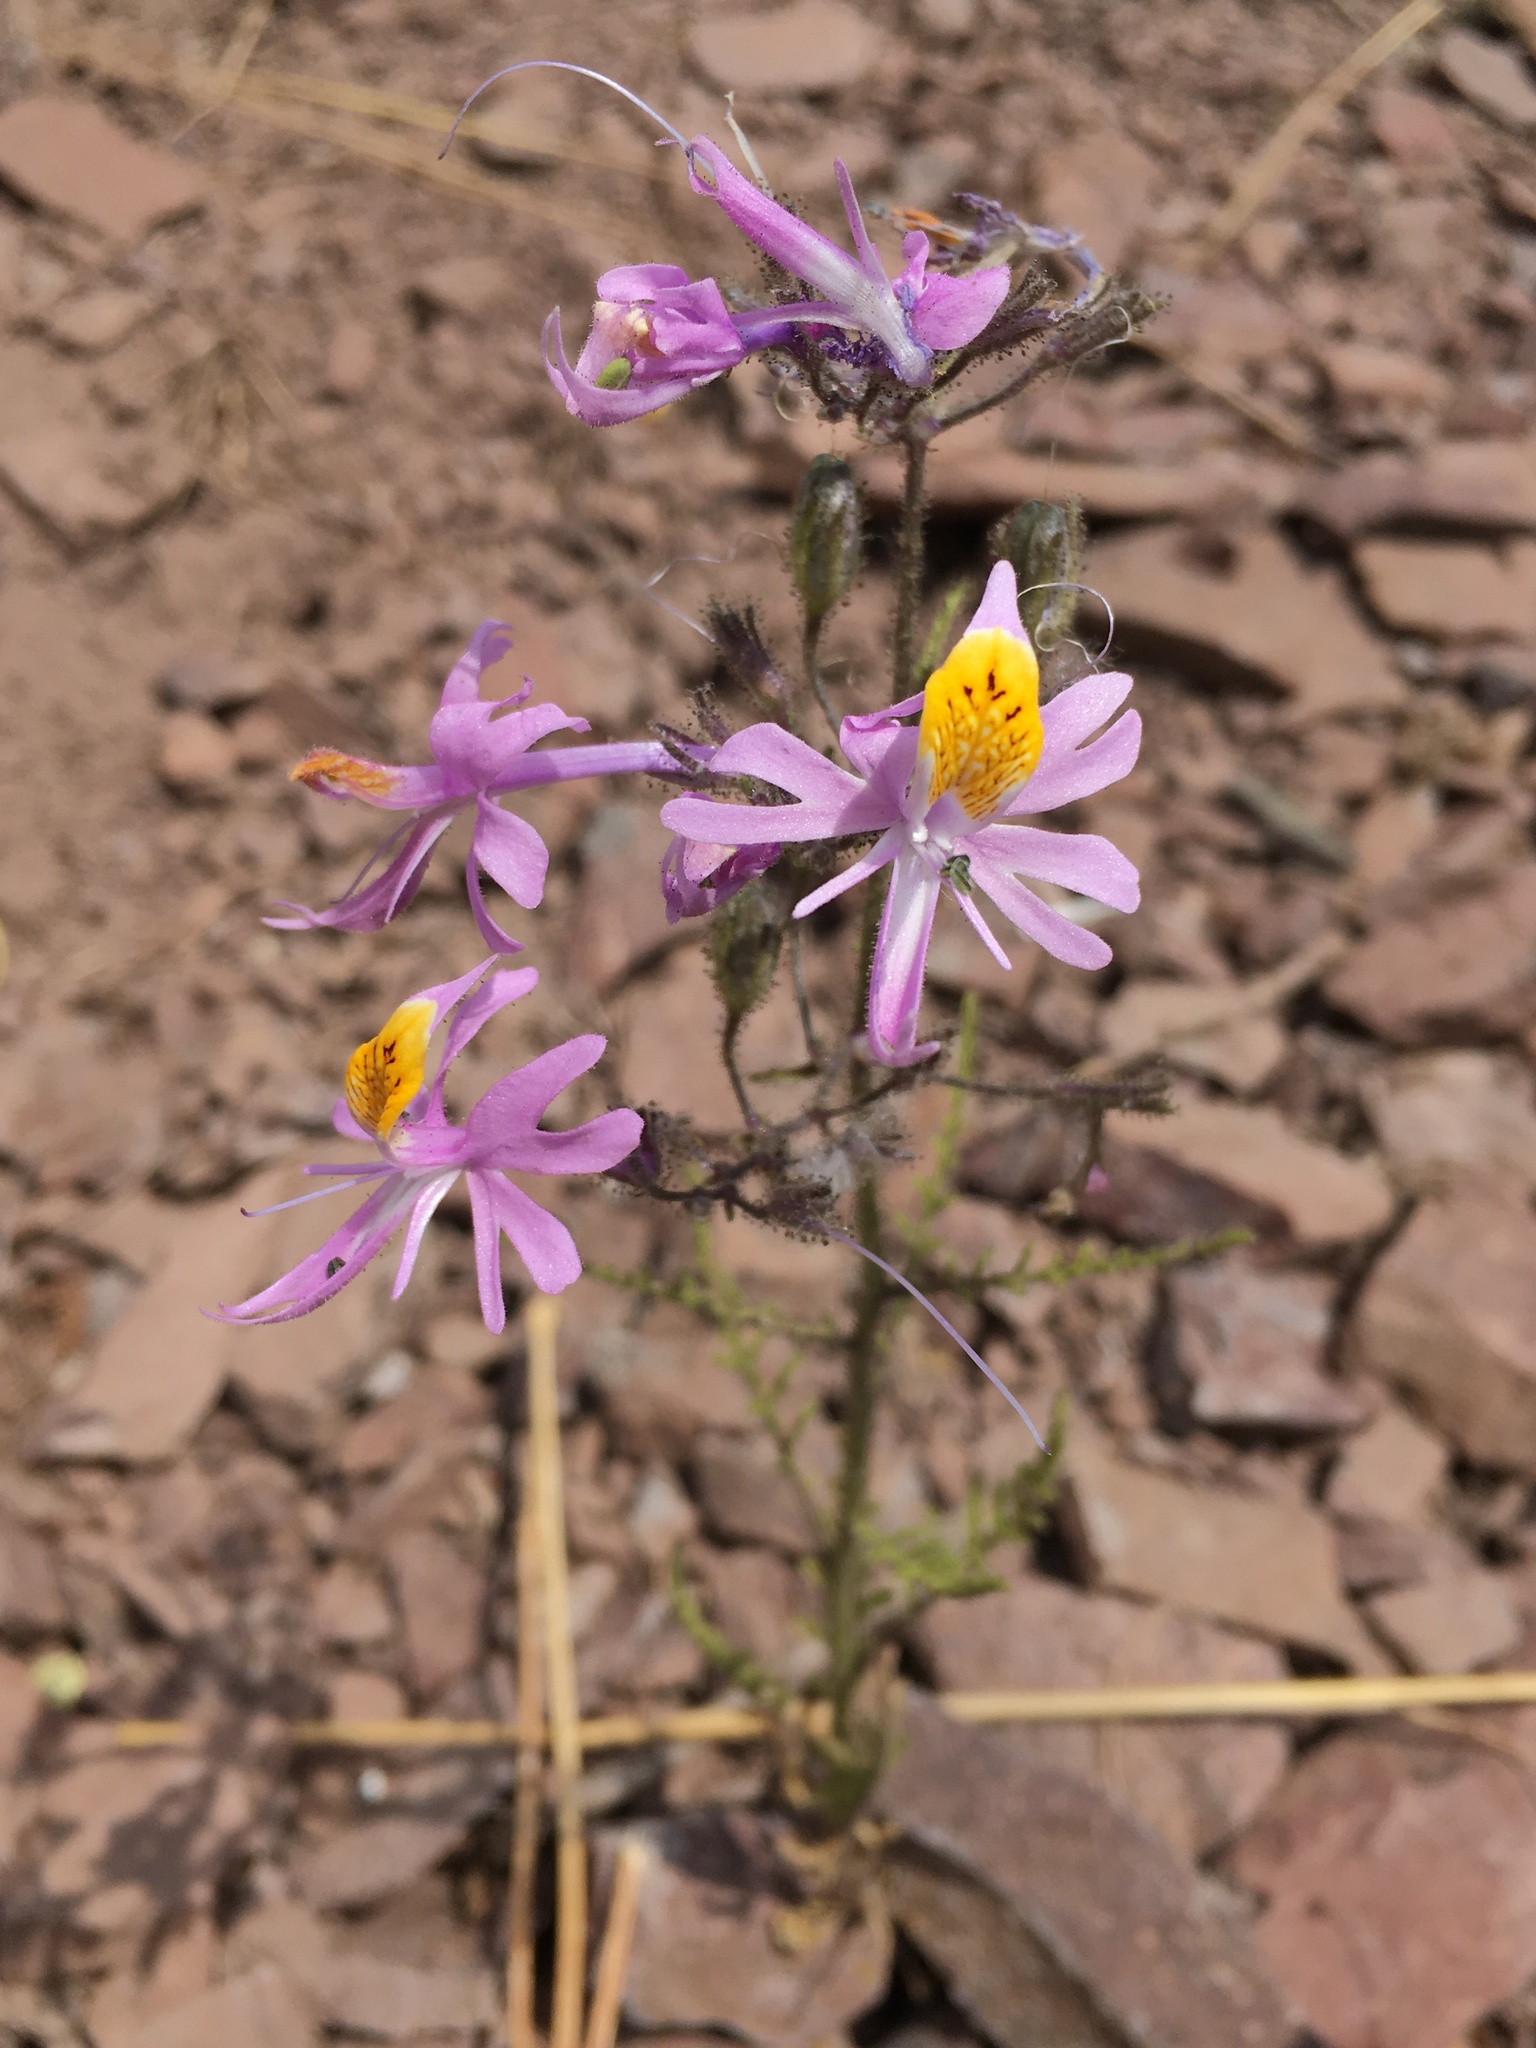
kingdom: Plantae
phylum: Tracheophyta
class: Magnoliopsida
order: Solanales
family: Solanaceae
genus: Schizanthus
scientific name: Schizanthus hookeri
